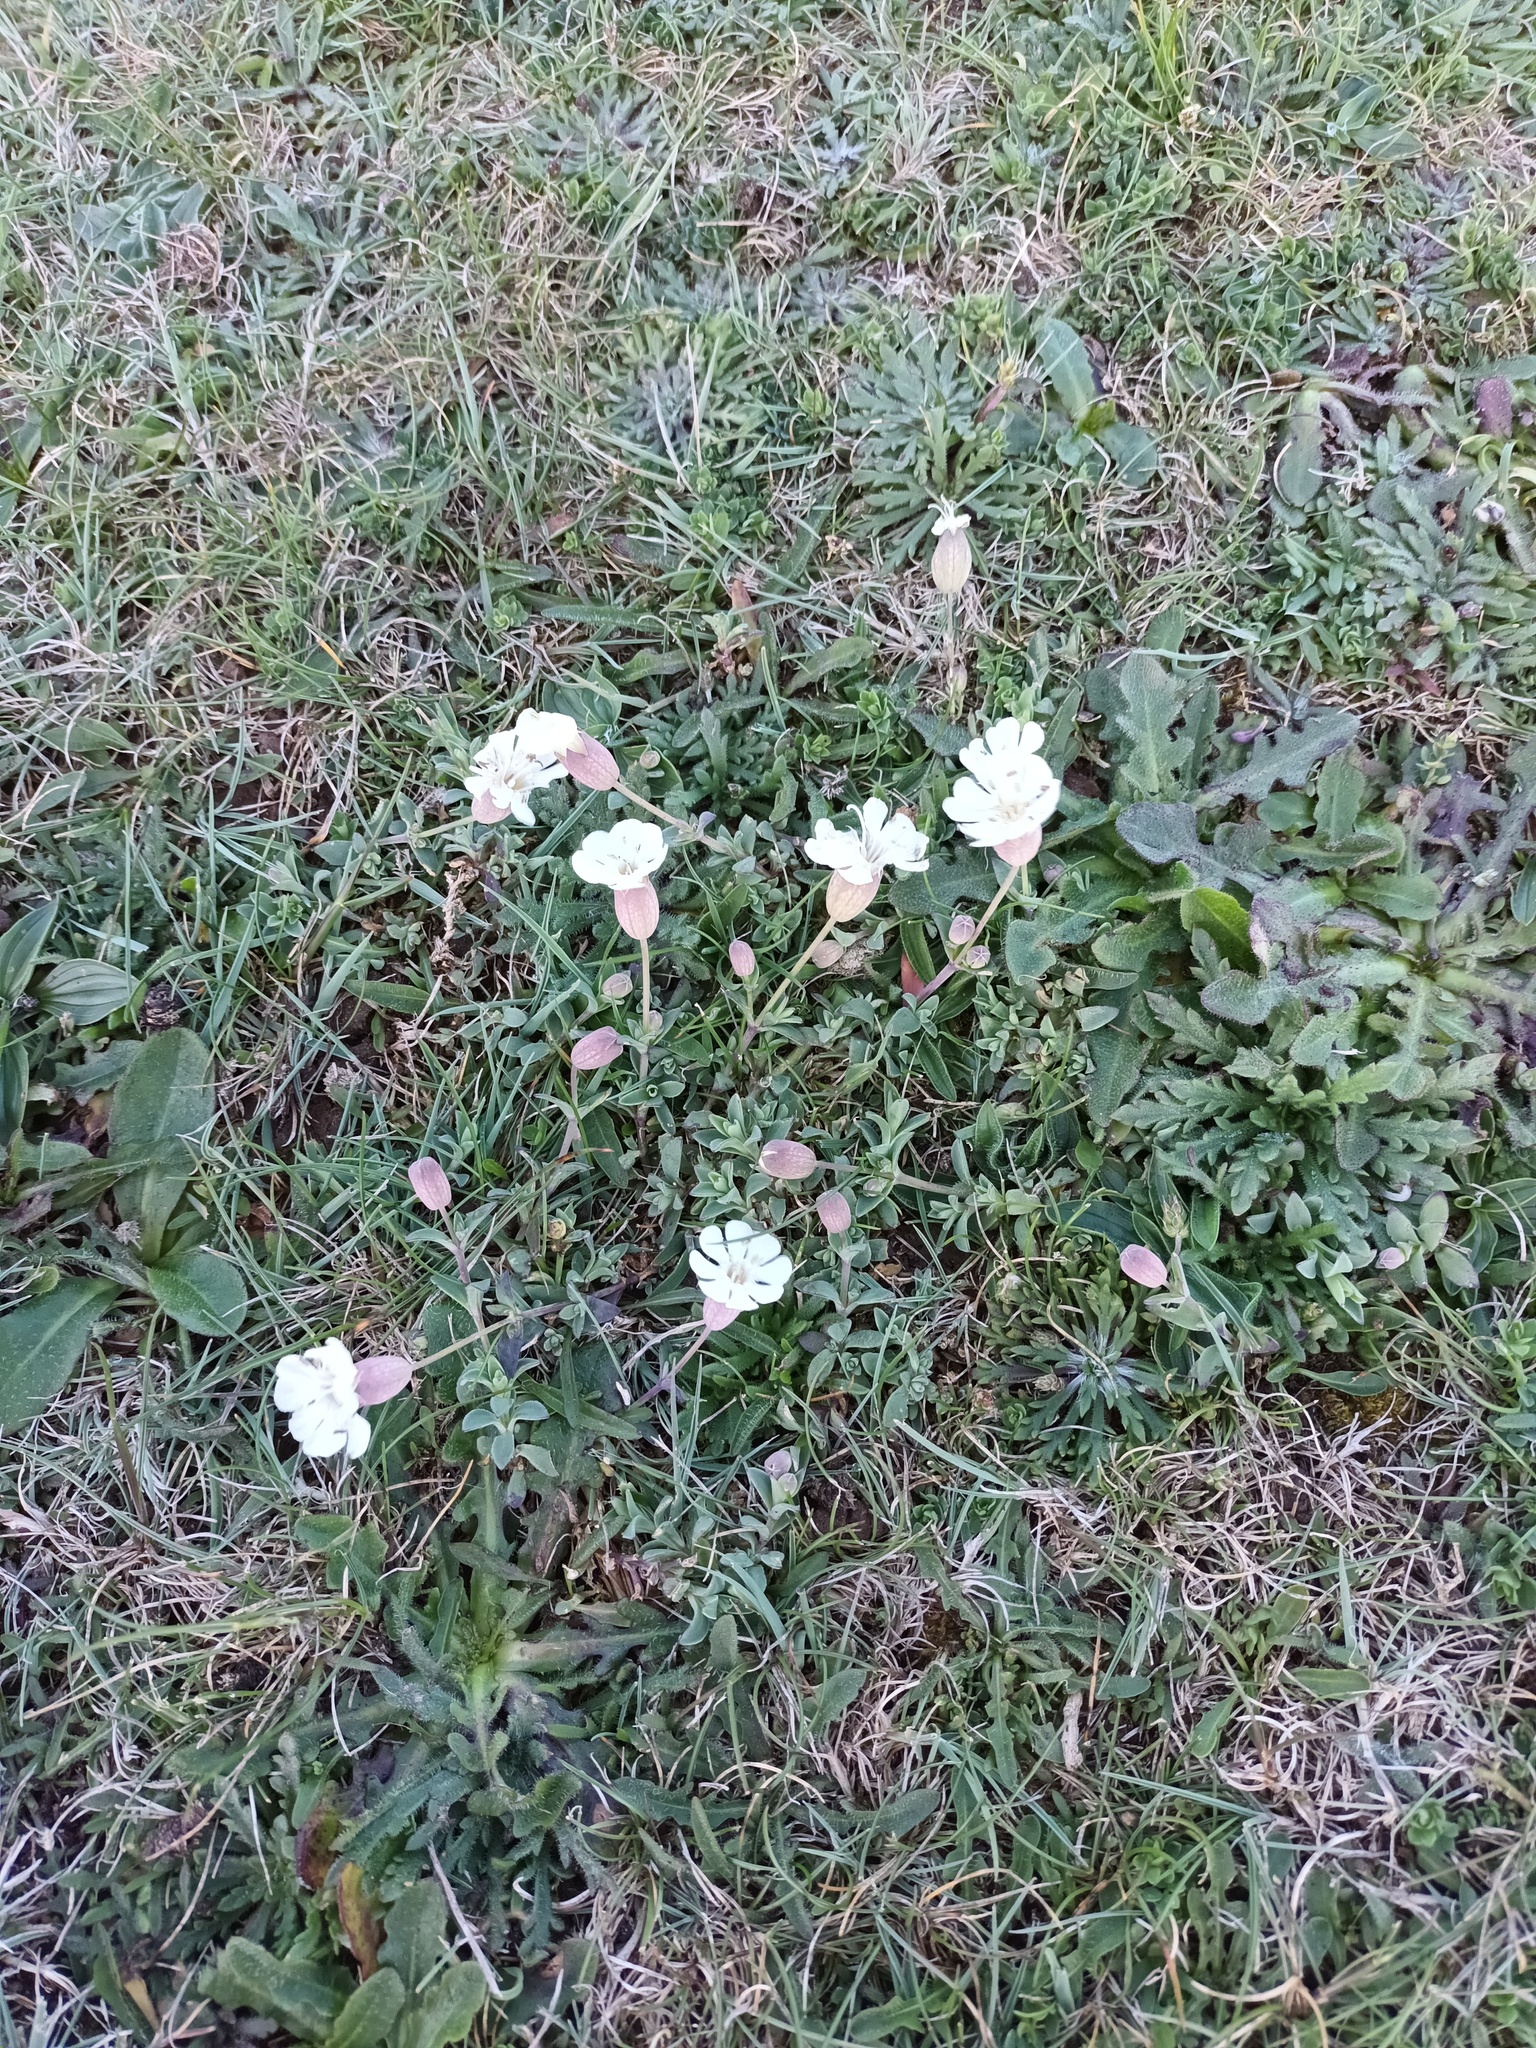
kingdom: Plantae
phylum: Tracheophyta
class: Magnoliopsida
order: Caryophyllales
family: Caryophyllaceae
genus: Silene
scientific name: Silene uniflora
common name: Sea campion
